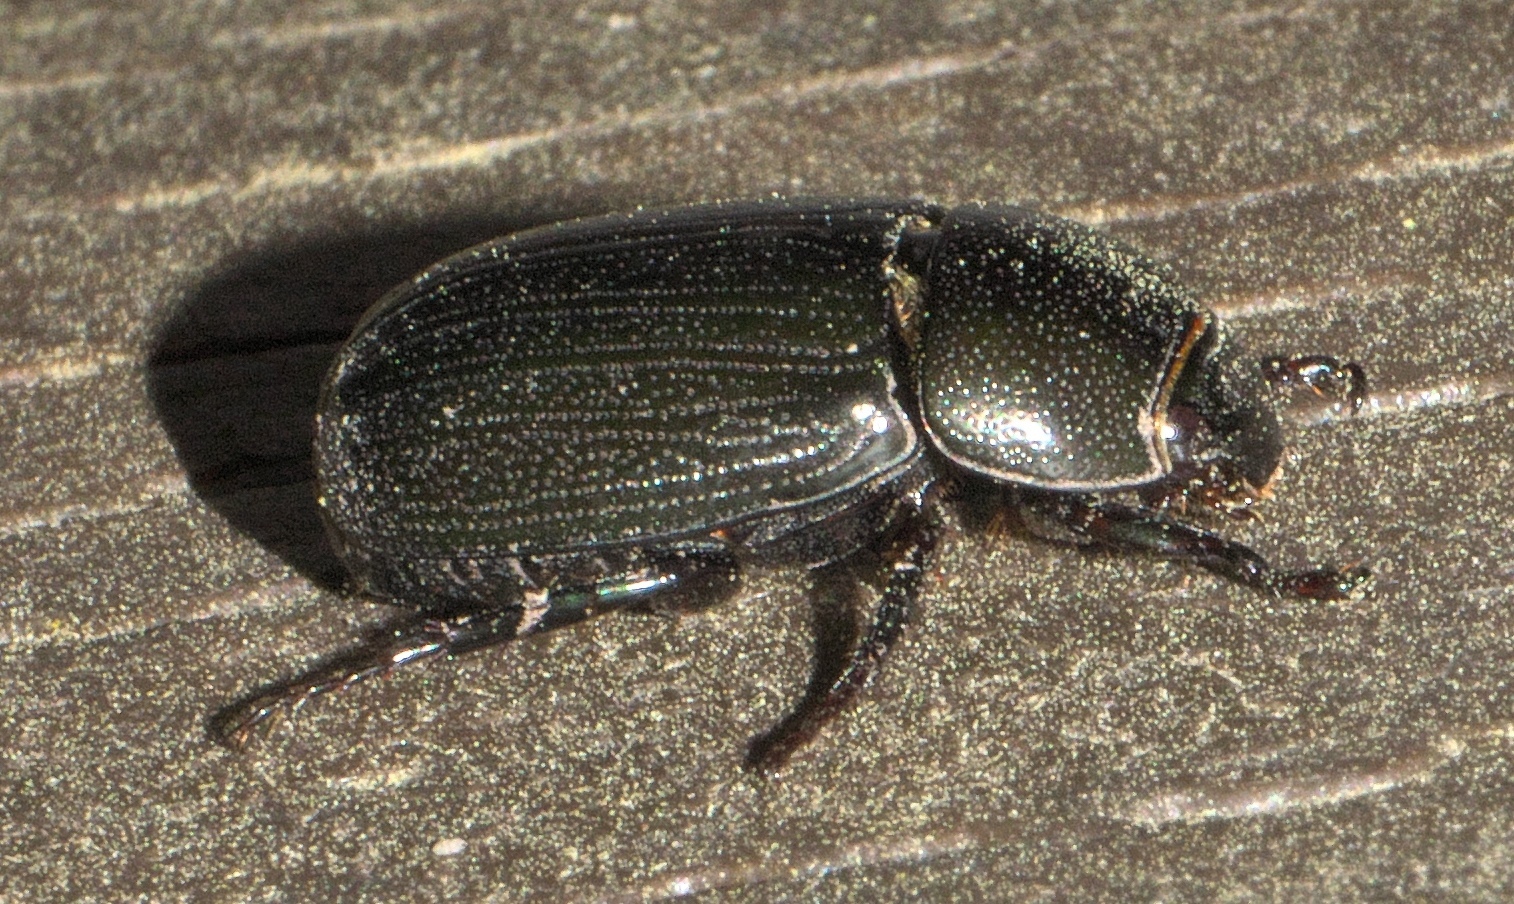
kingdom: Animalia
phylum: Arthropoda
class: Insecta
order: Coleoptera
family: Scarabaeidae
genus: Dyscinetus
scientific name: Dyscinetus morator
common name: Rice beetle
